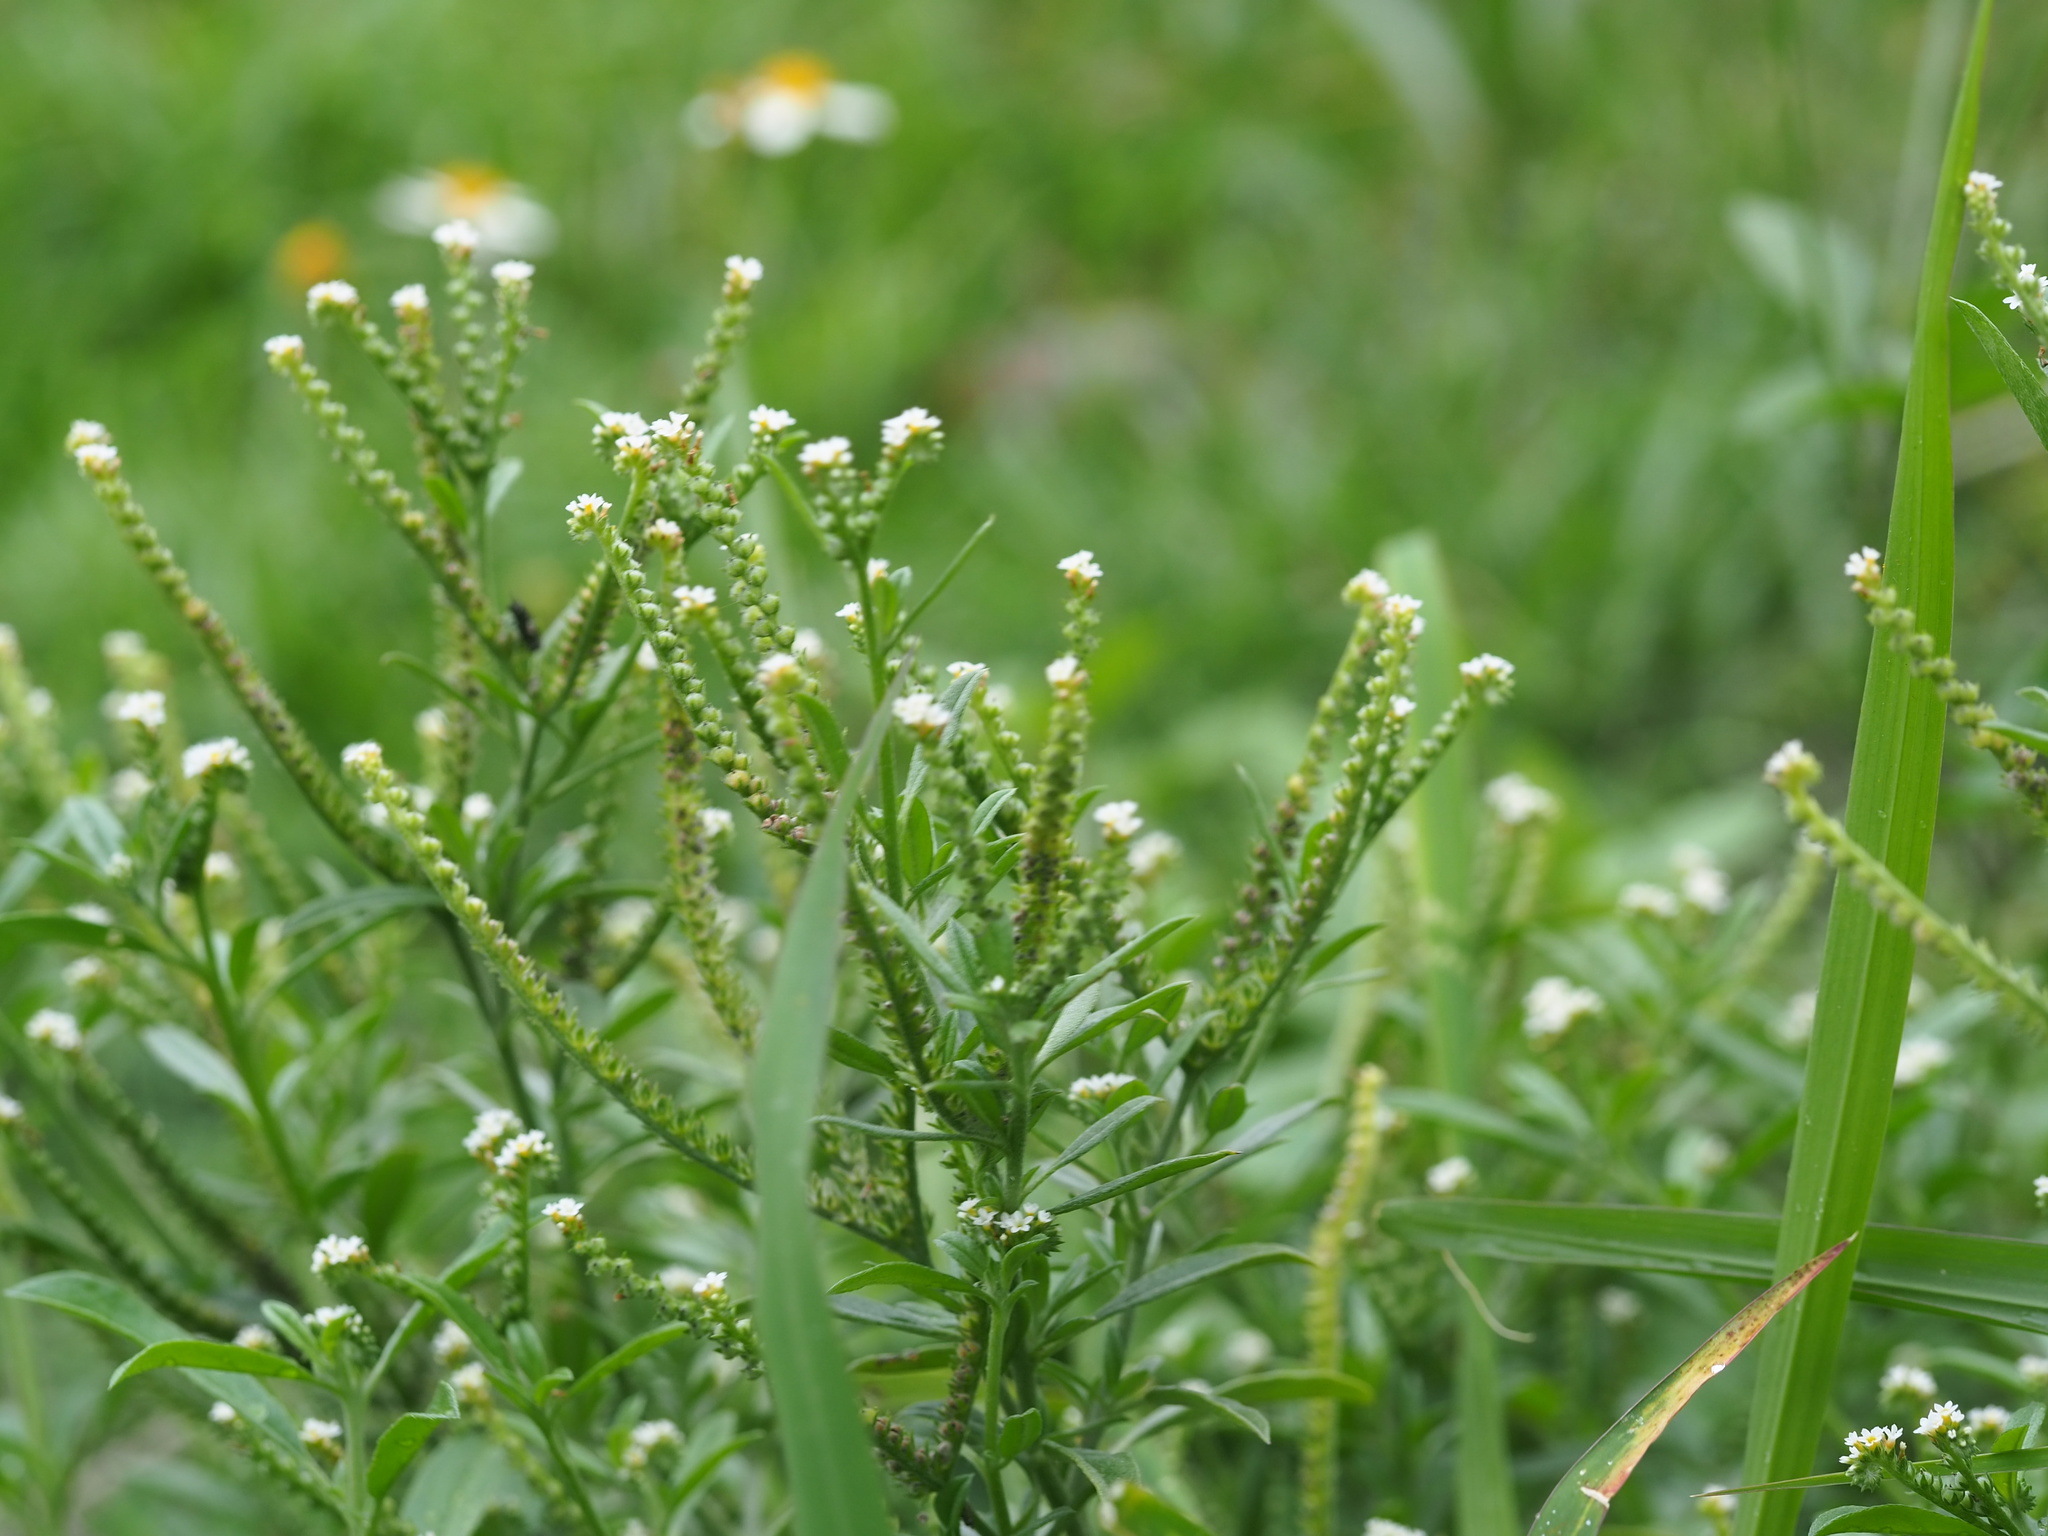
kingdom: Plantae
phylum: Tracheophyta
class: Magnoliopsida
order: Boraginales
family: Heliotropiaceae
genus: Euploca
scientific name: Euploca procumbens
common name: Fourspike heliotrope
